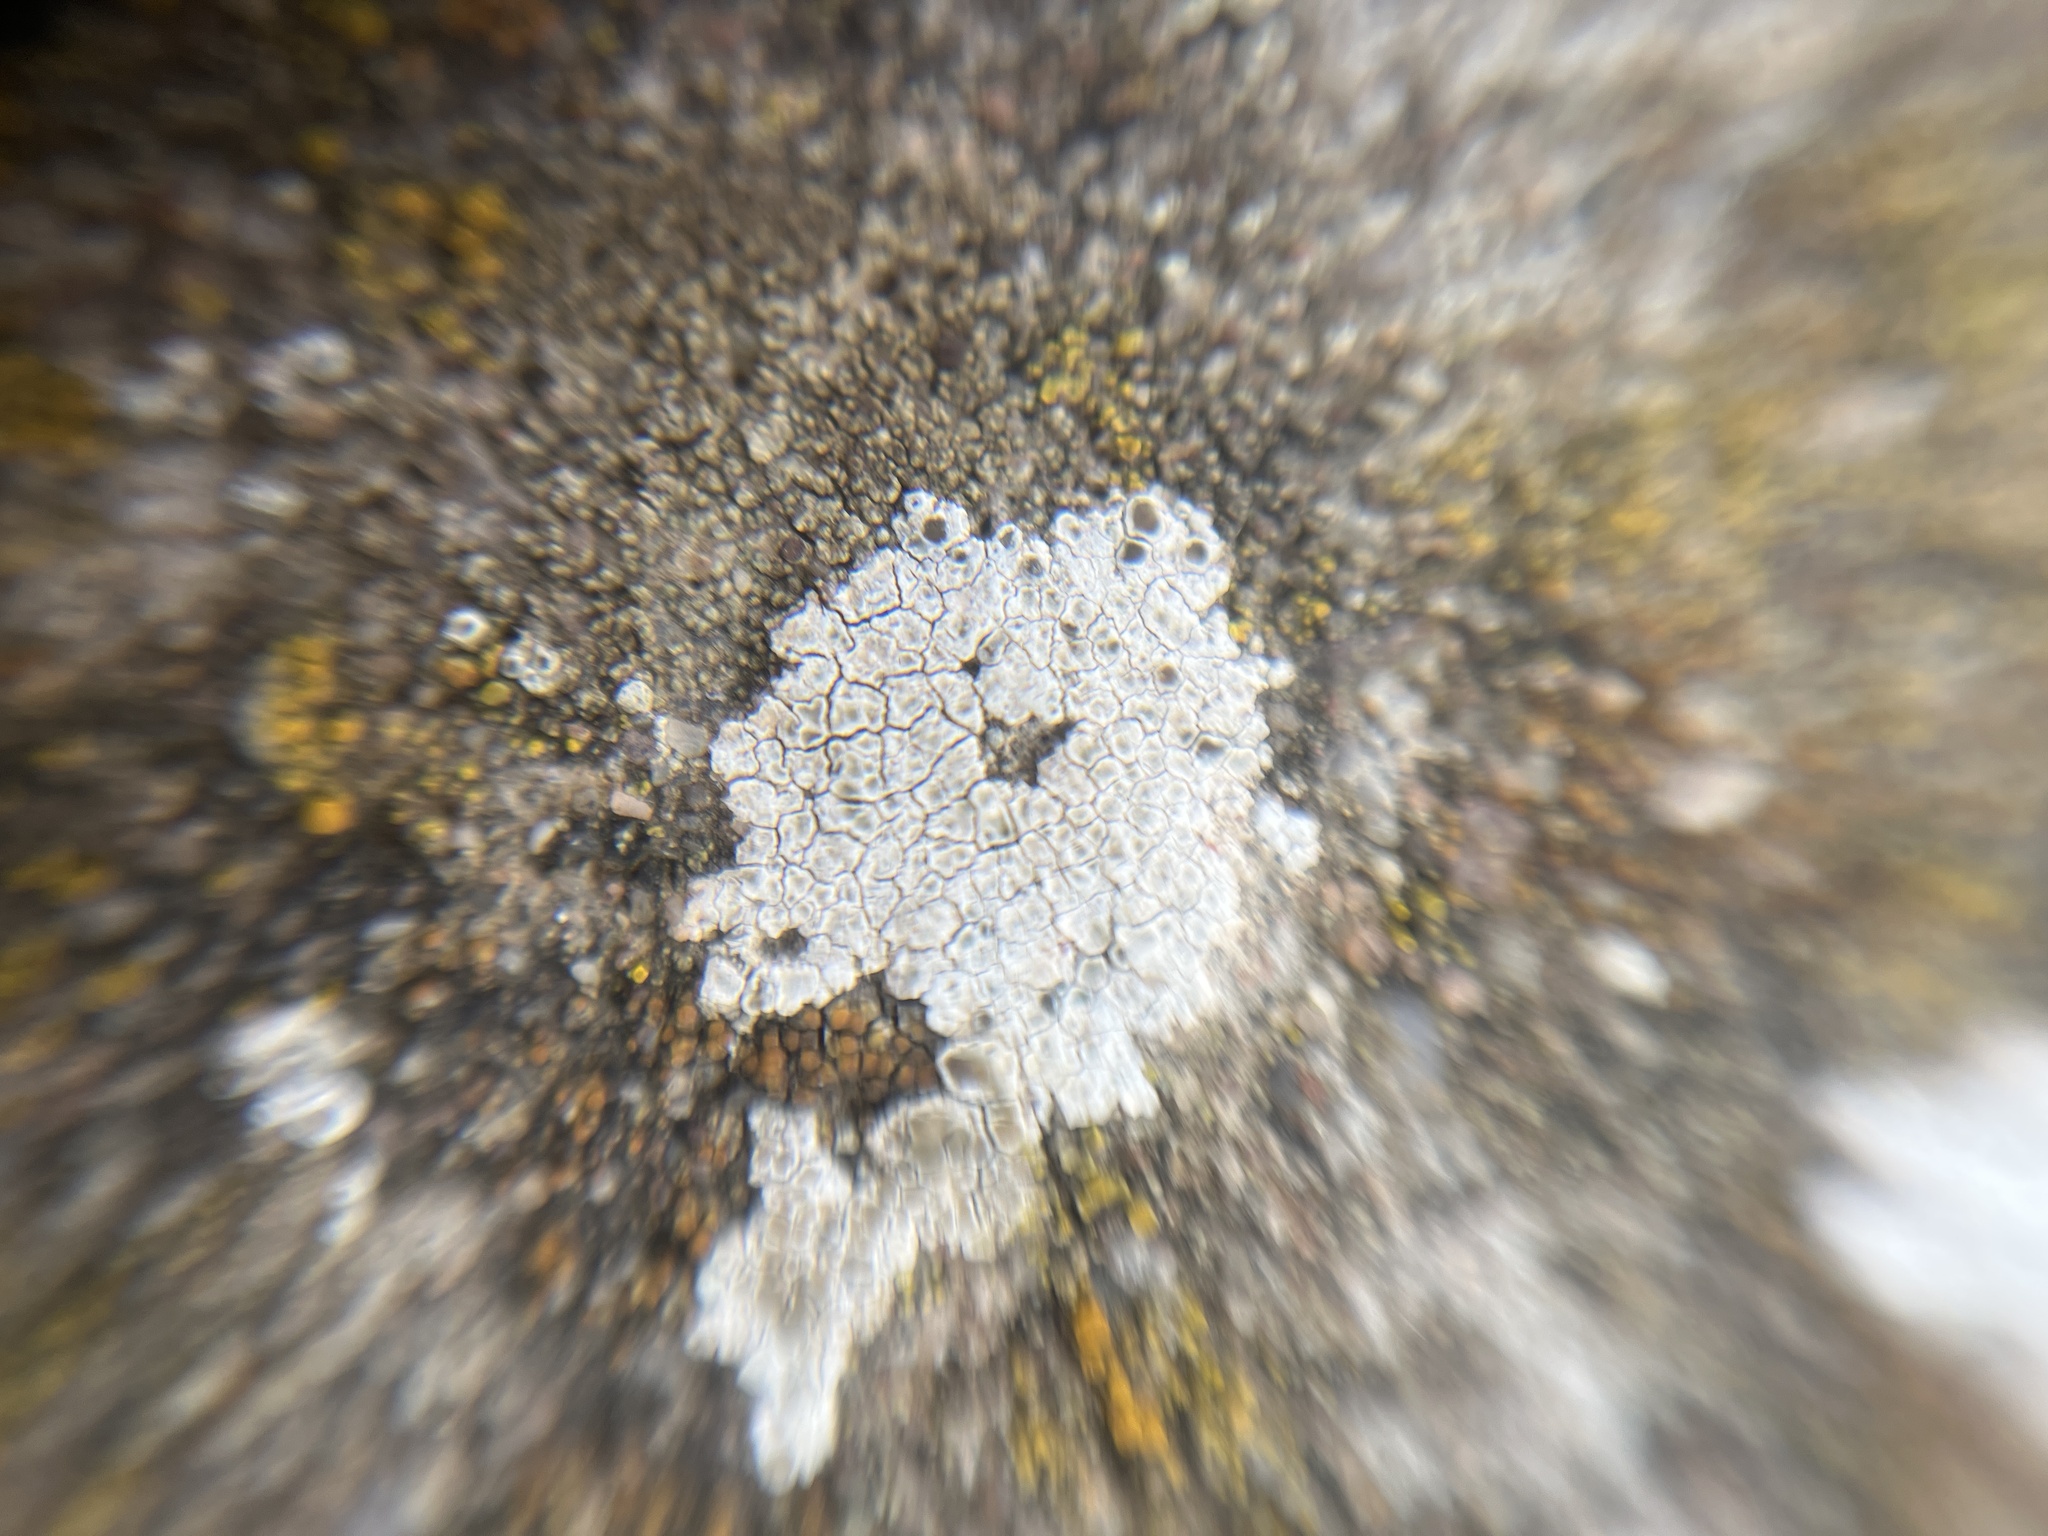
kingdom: Fungi
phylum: Ascomycota
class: Lecanoromycetes
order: Lecanorales
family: Lecanoraceae
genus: Polyozosia
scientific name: Polyozosia albescens
